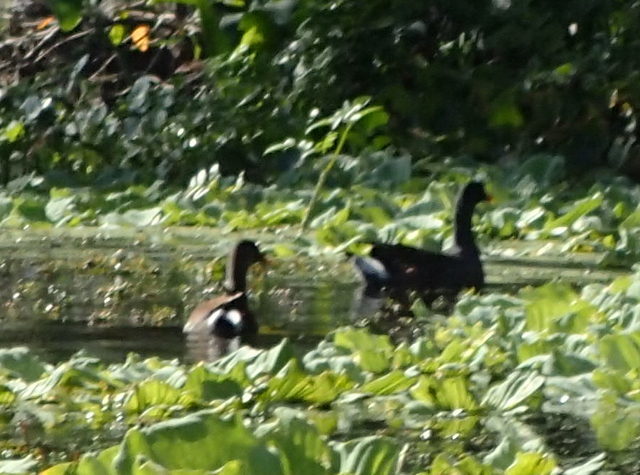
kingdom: Animalia
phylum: Chordata
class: Aves
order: Gruiformes
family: Rallidae
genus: Gallinula
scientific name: Gallinula chloropus
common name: Common moorhen
